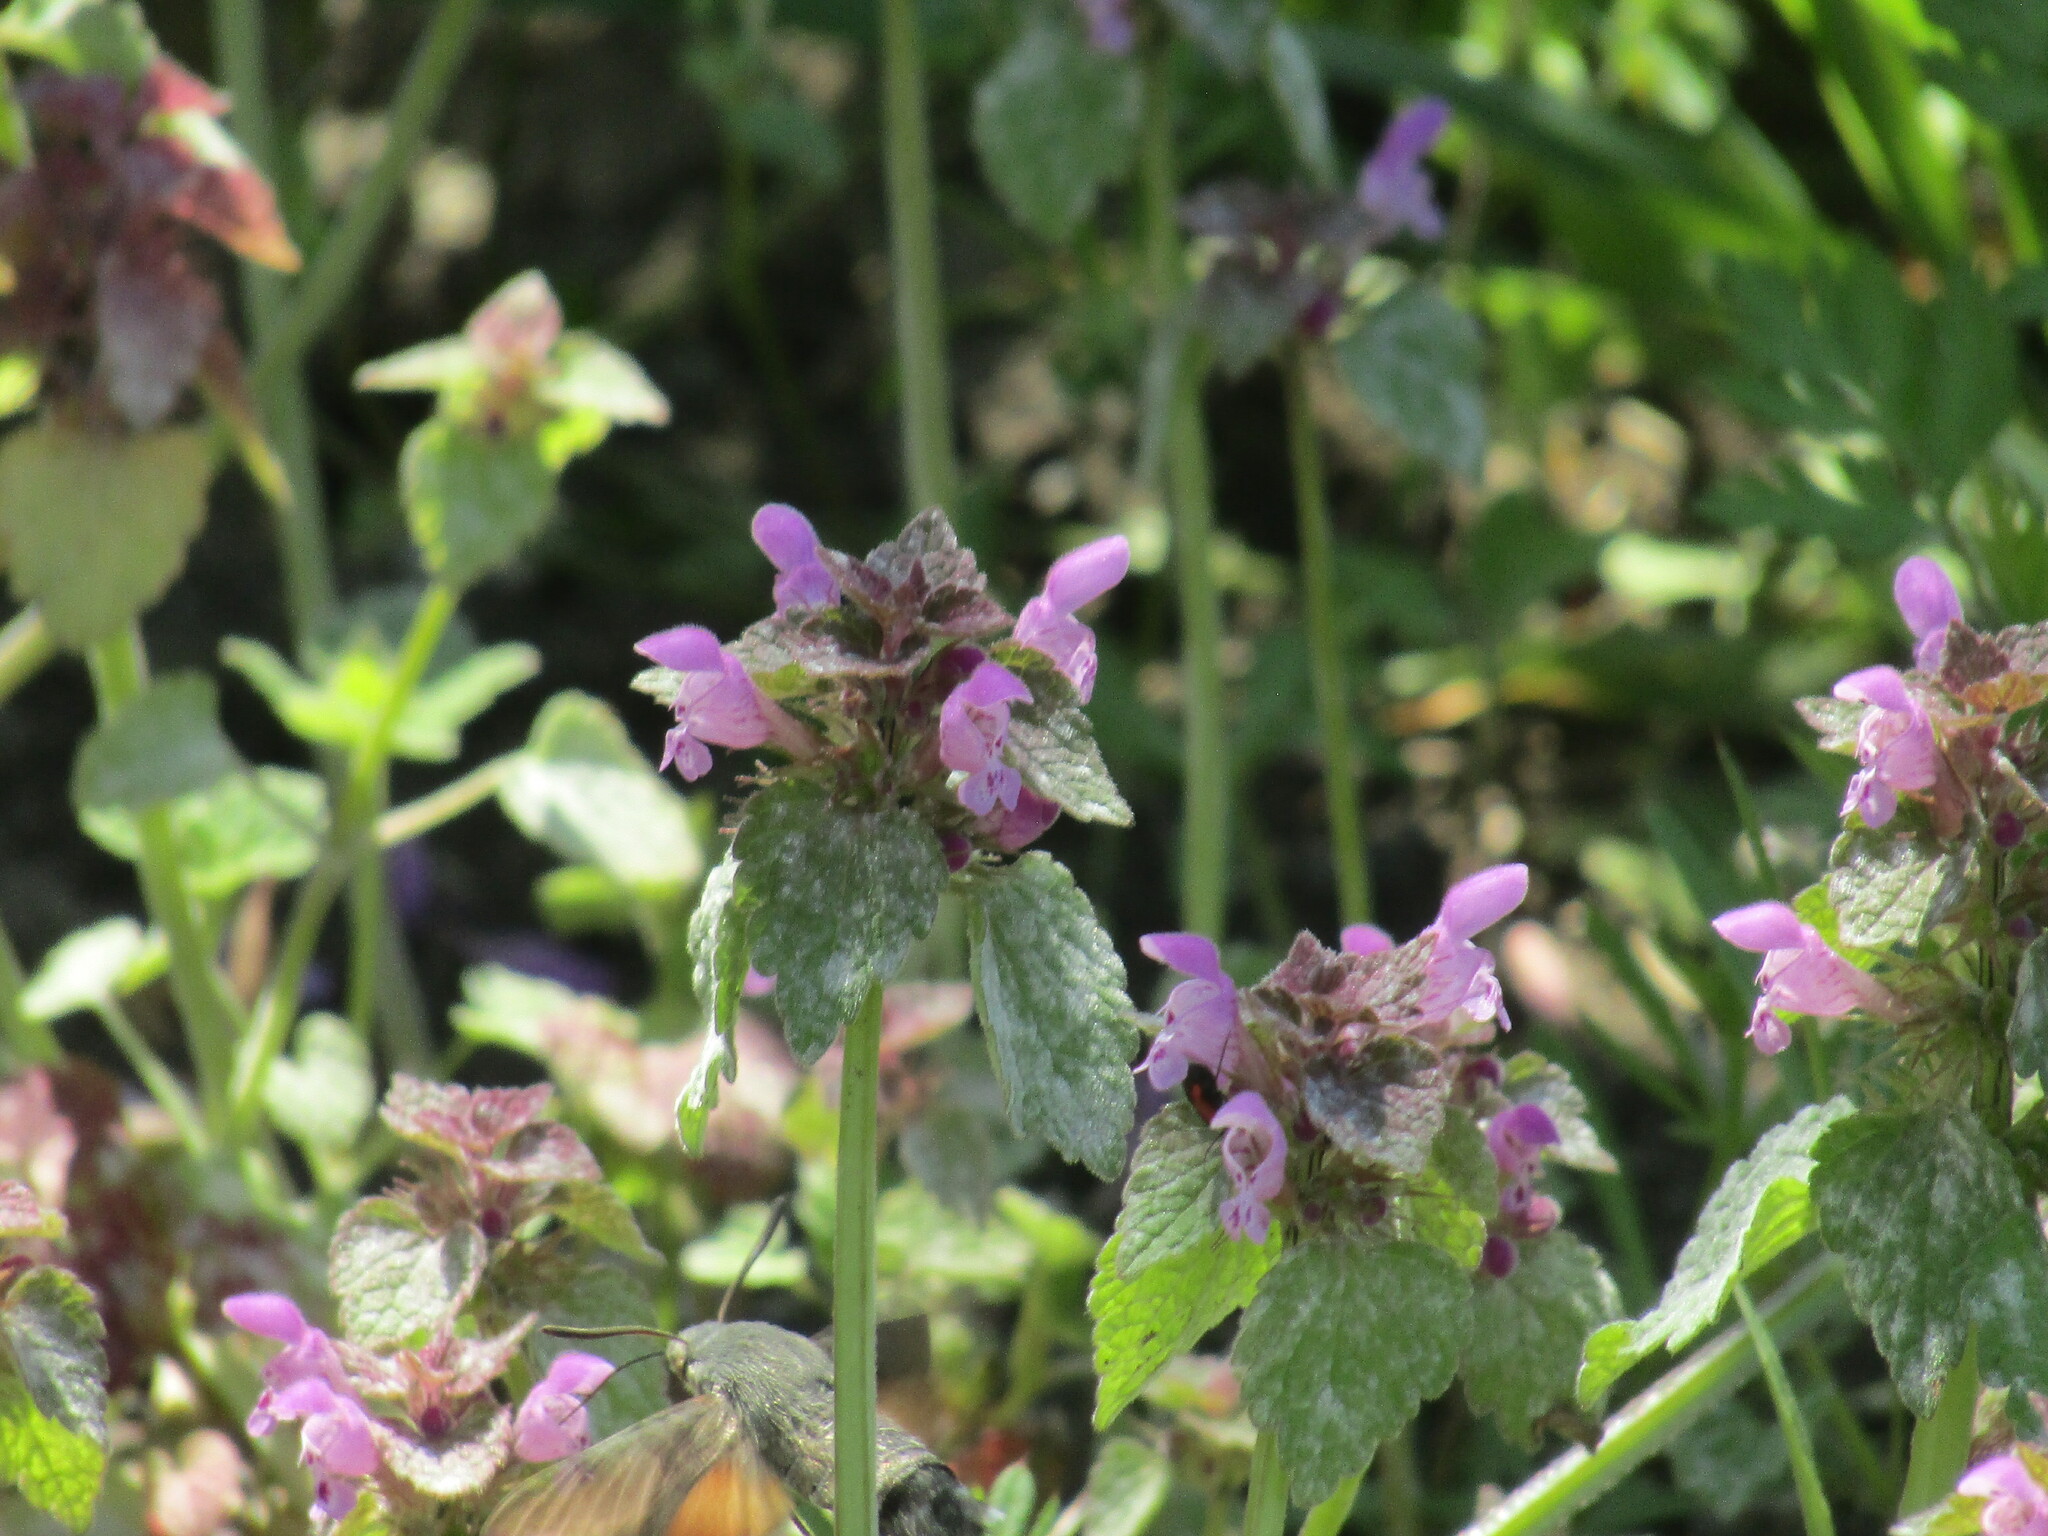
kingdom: Animalia
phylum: Arthropoda
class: Insecta
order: Lepidoptera
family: Sphingidae
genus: Macroglossum
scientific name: Macroglossum stellatarum
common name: Humming-bird hawk-moth
